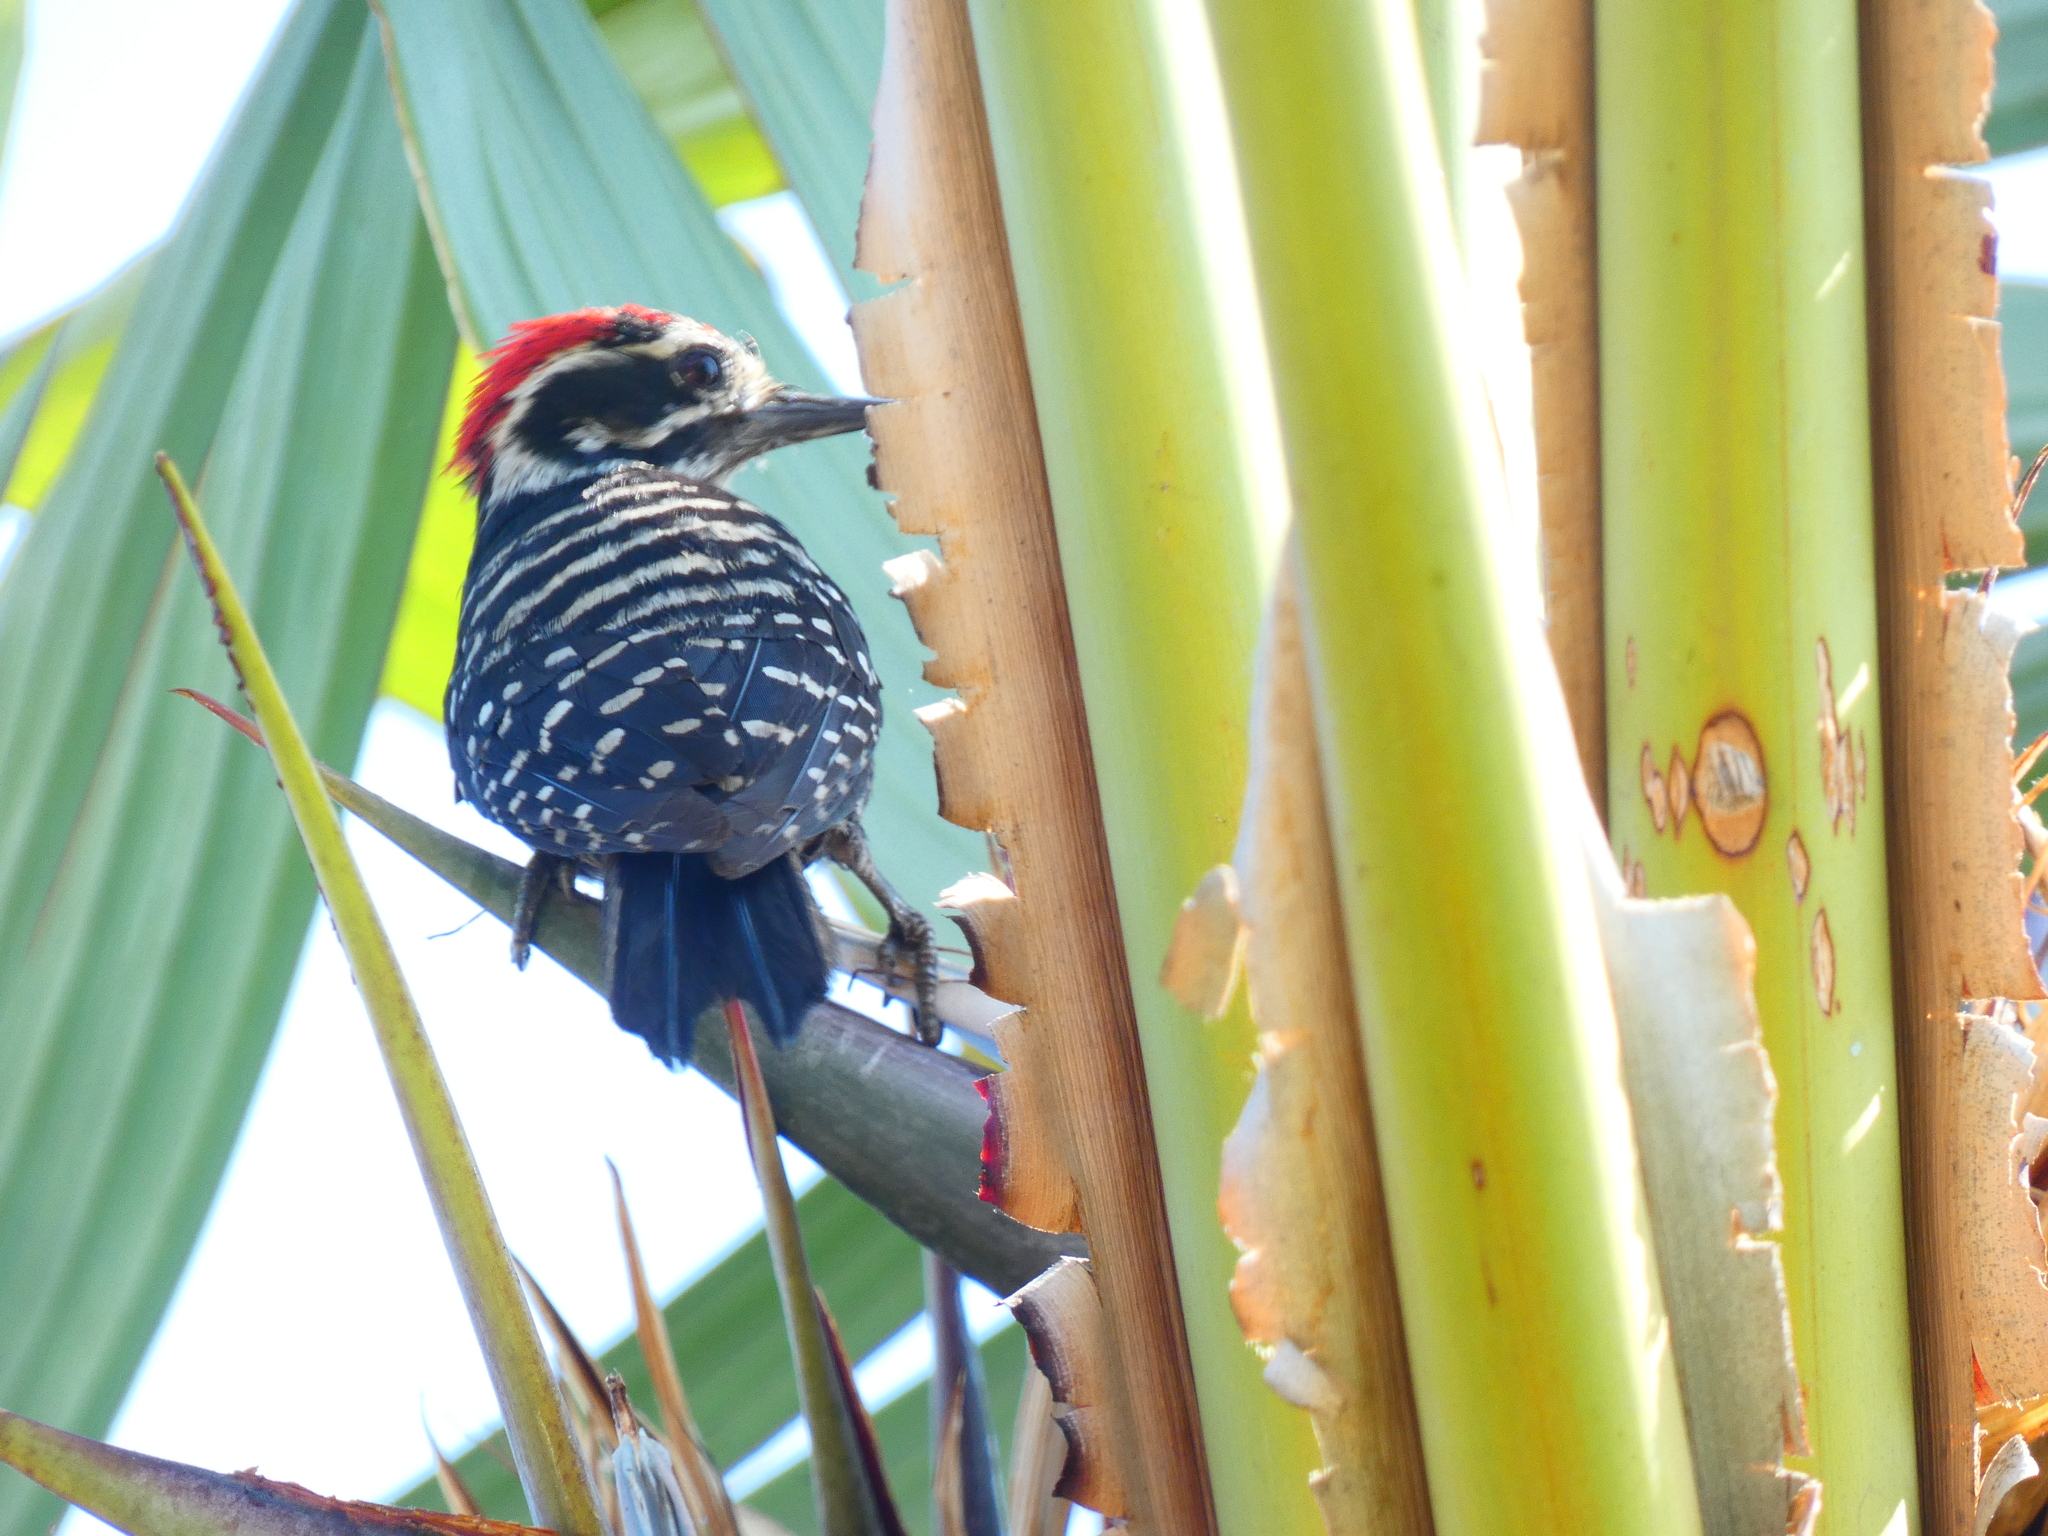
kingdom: Animalia
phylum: Chordata
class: Aves
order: Piciformes
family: Picidae
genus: Dryobates
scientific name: Dryobates nuttallii
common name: Nuttall's woodpecker
